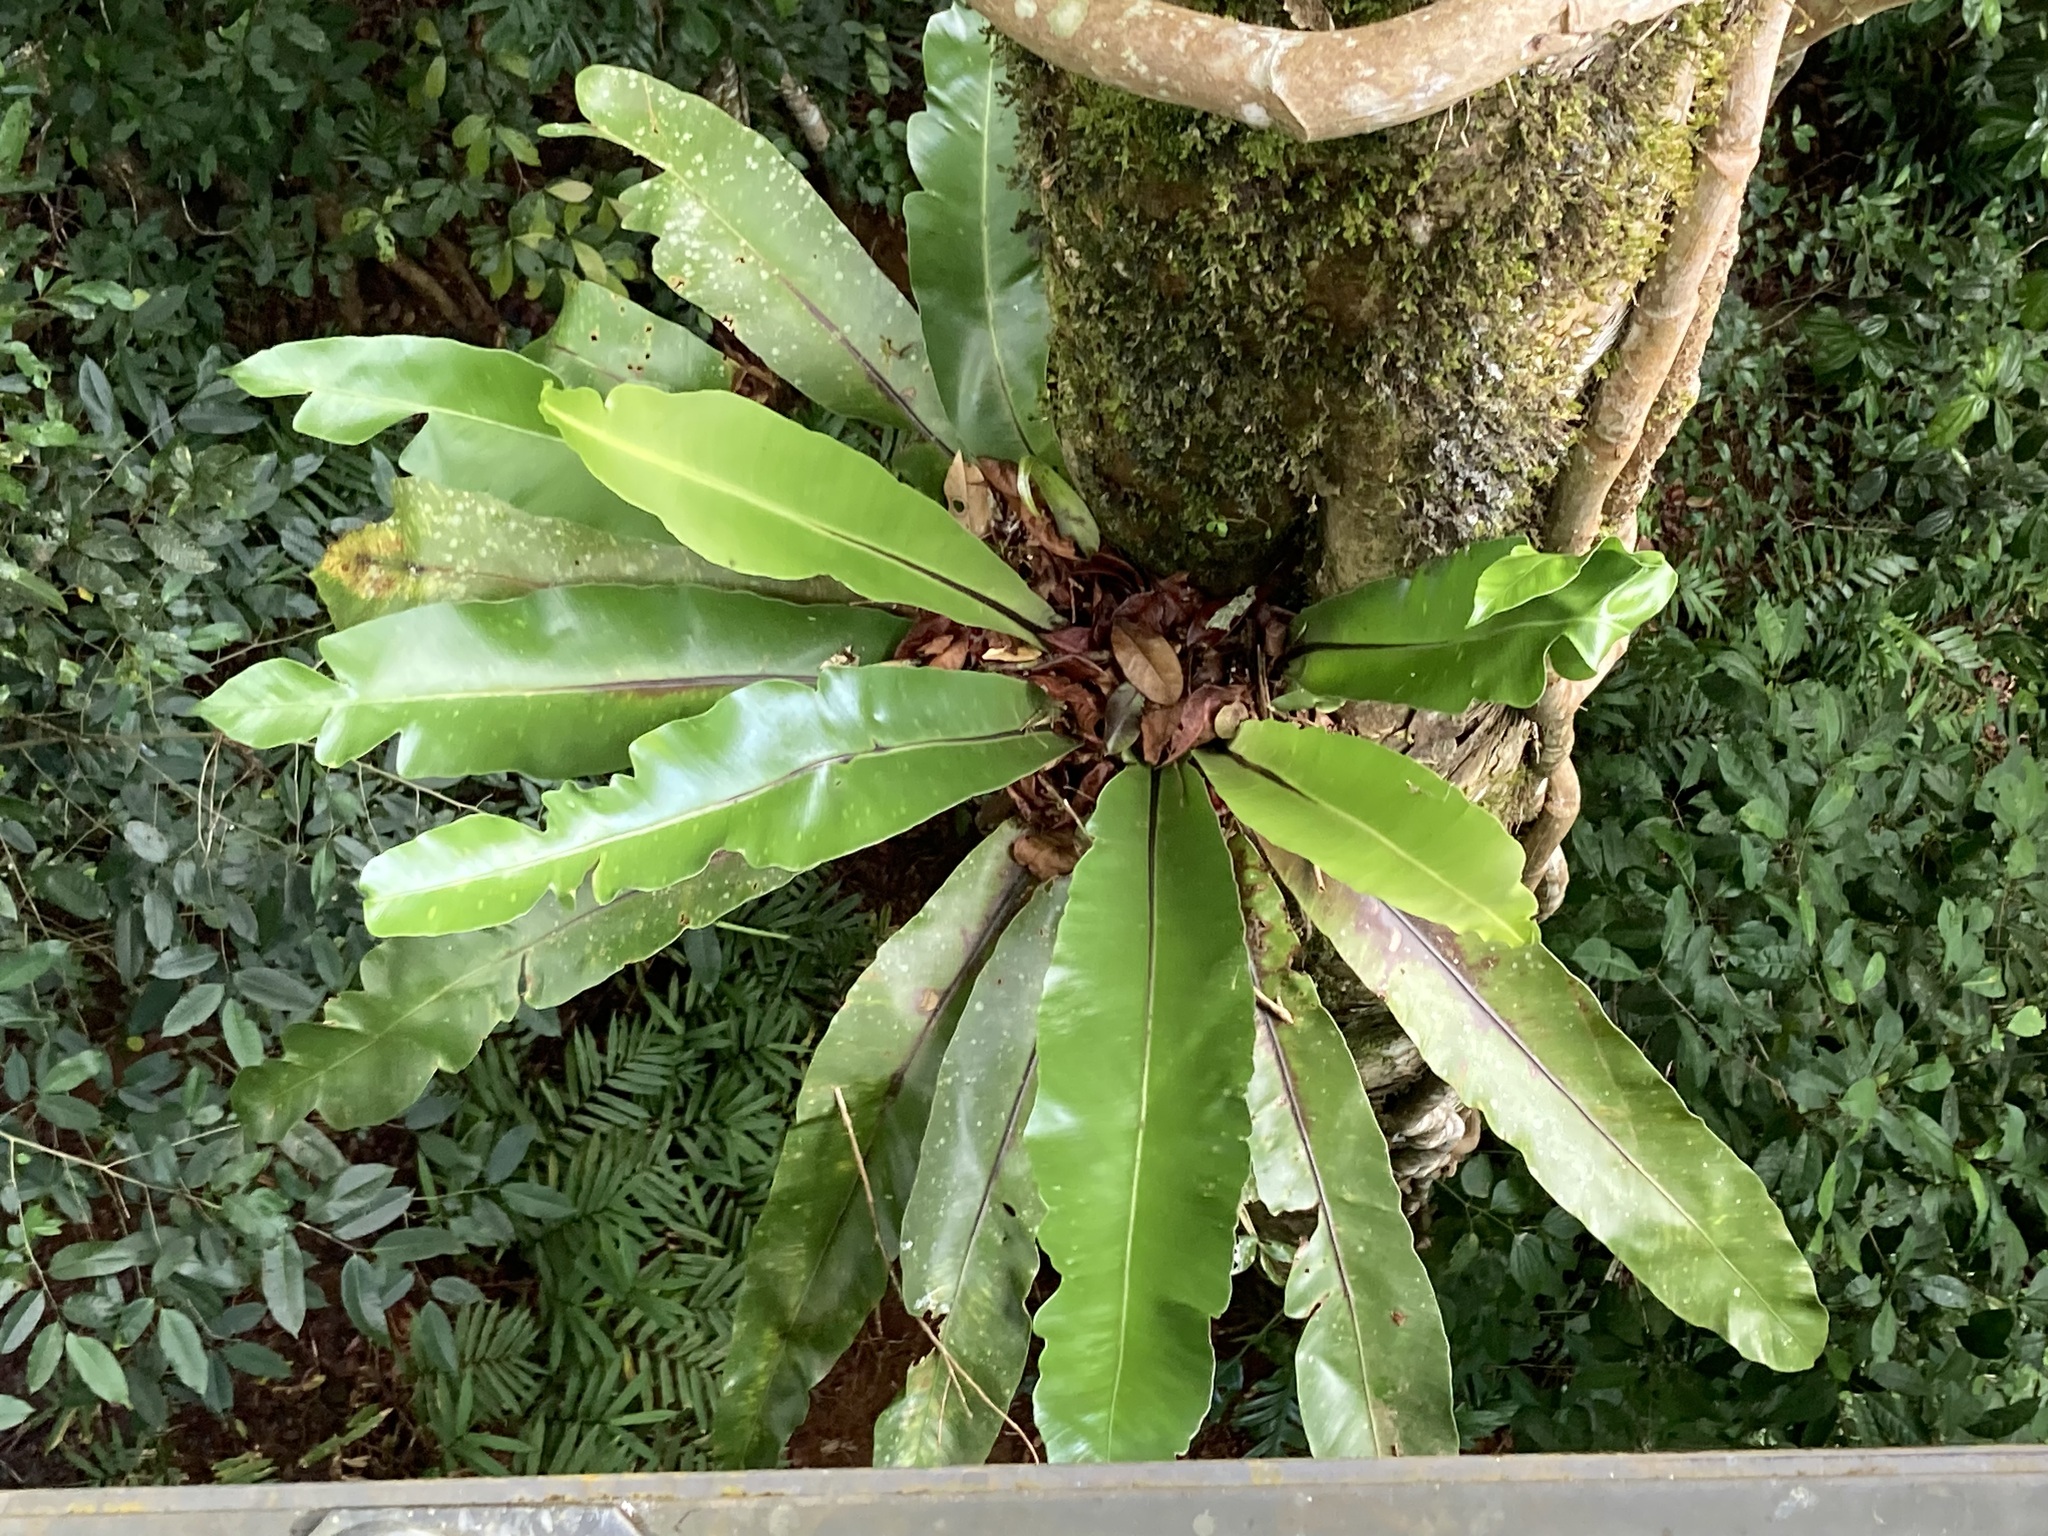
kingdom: Plantae
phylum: Tracheophyta
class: Polypodiopsida
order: Polypodiales
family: Aspleniaceae
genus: Asplenium
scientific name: Asplenium nidus
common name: Bird's-nest fern
